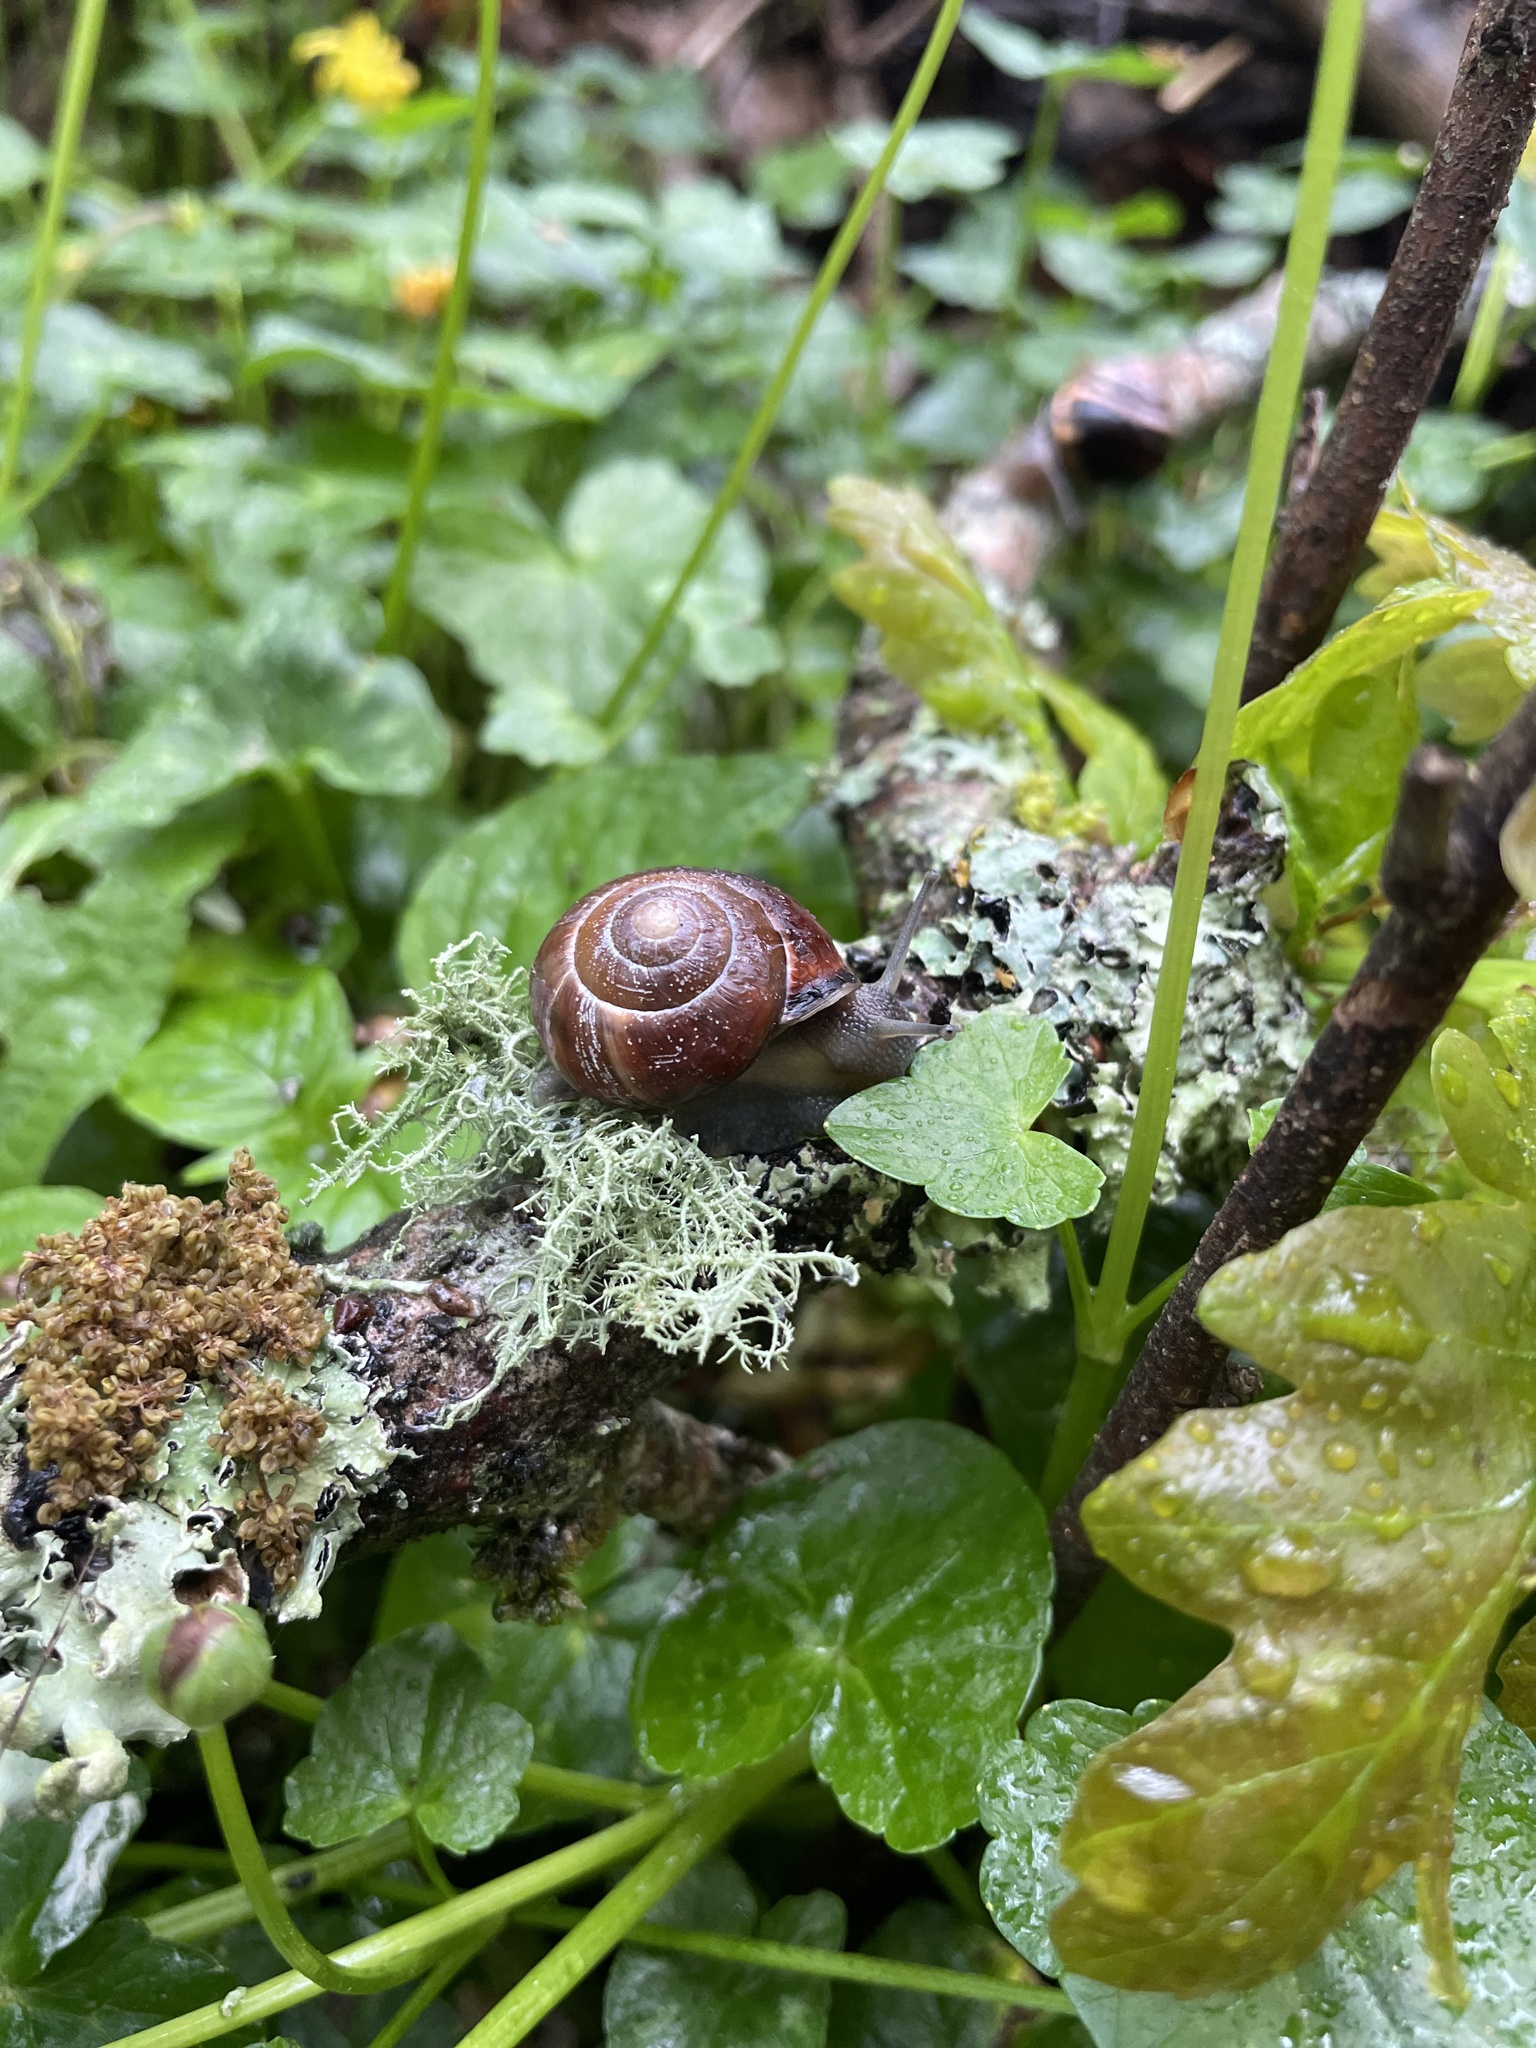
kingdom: Animalia
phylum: Mollusca
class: Gastropoda
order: Stylommatophora
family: Helicidae
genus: Cepaea
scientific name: Cepaea nemoralis
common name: Grovesnail
